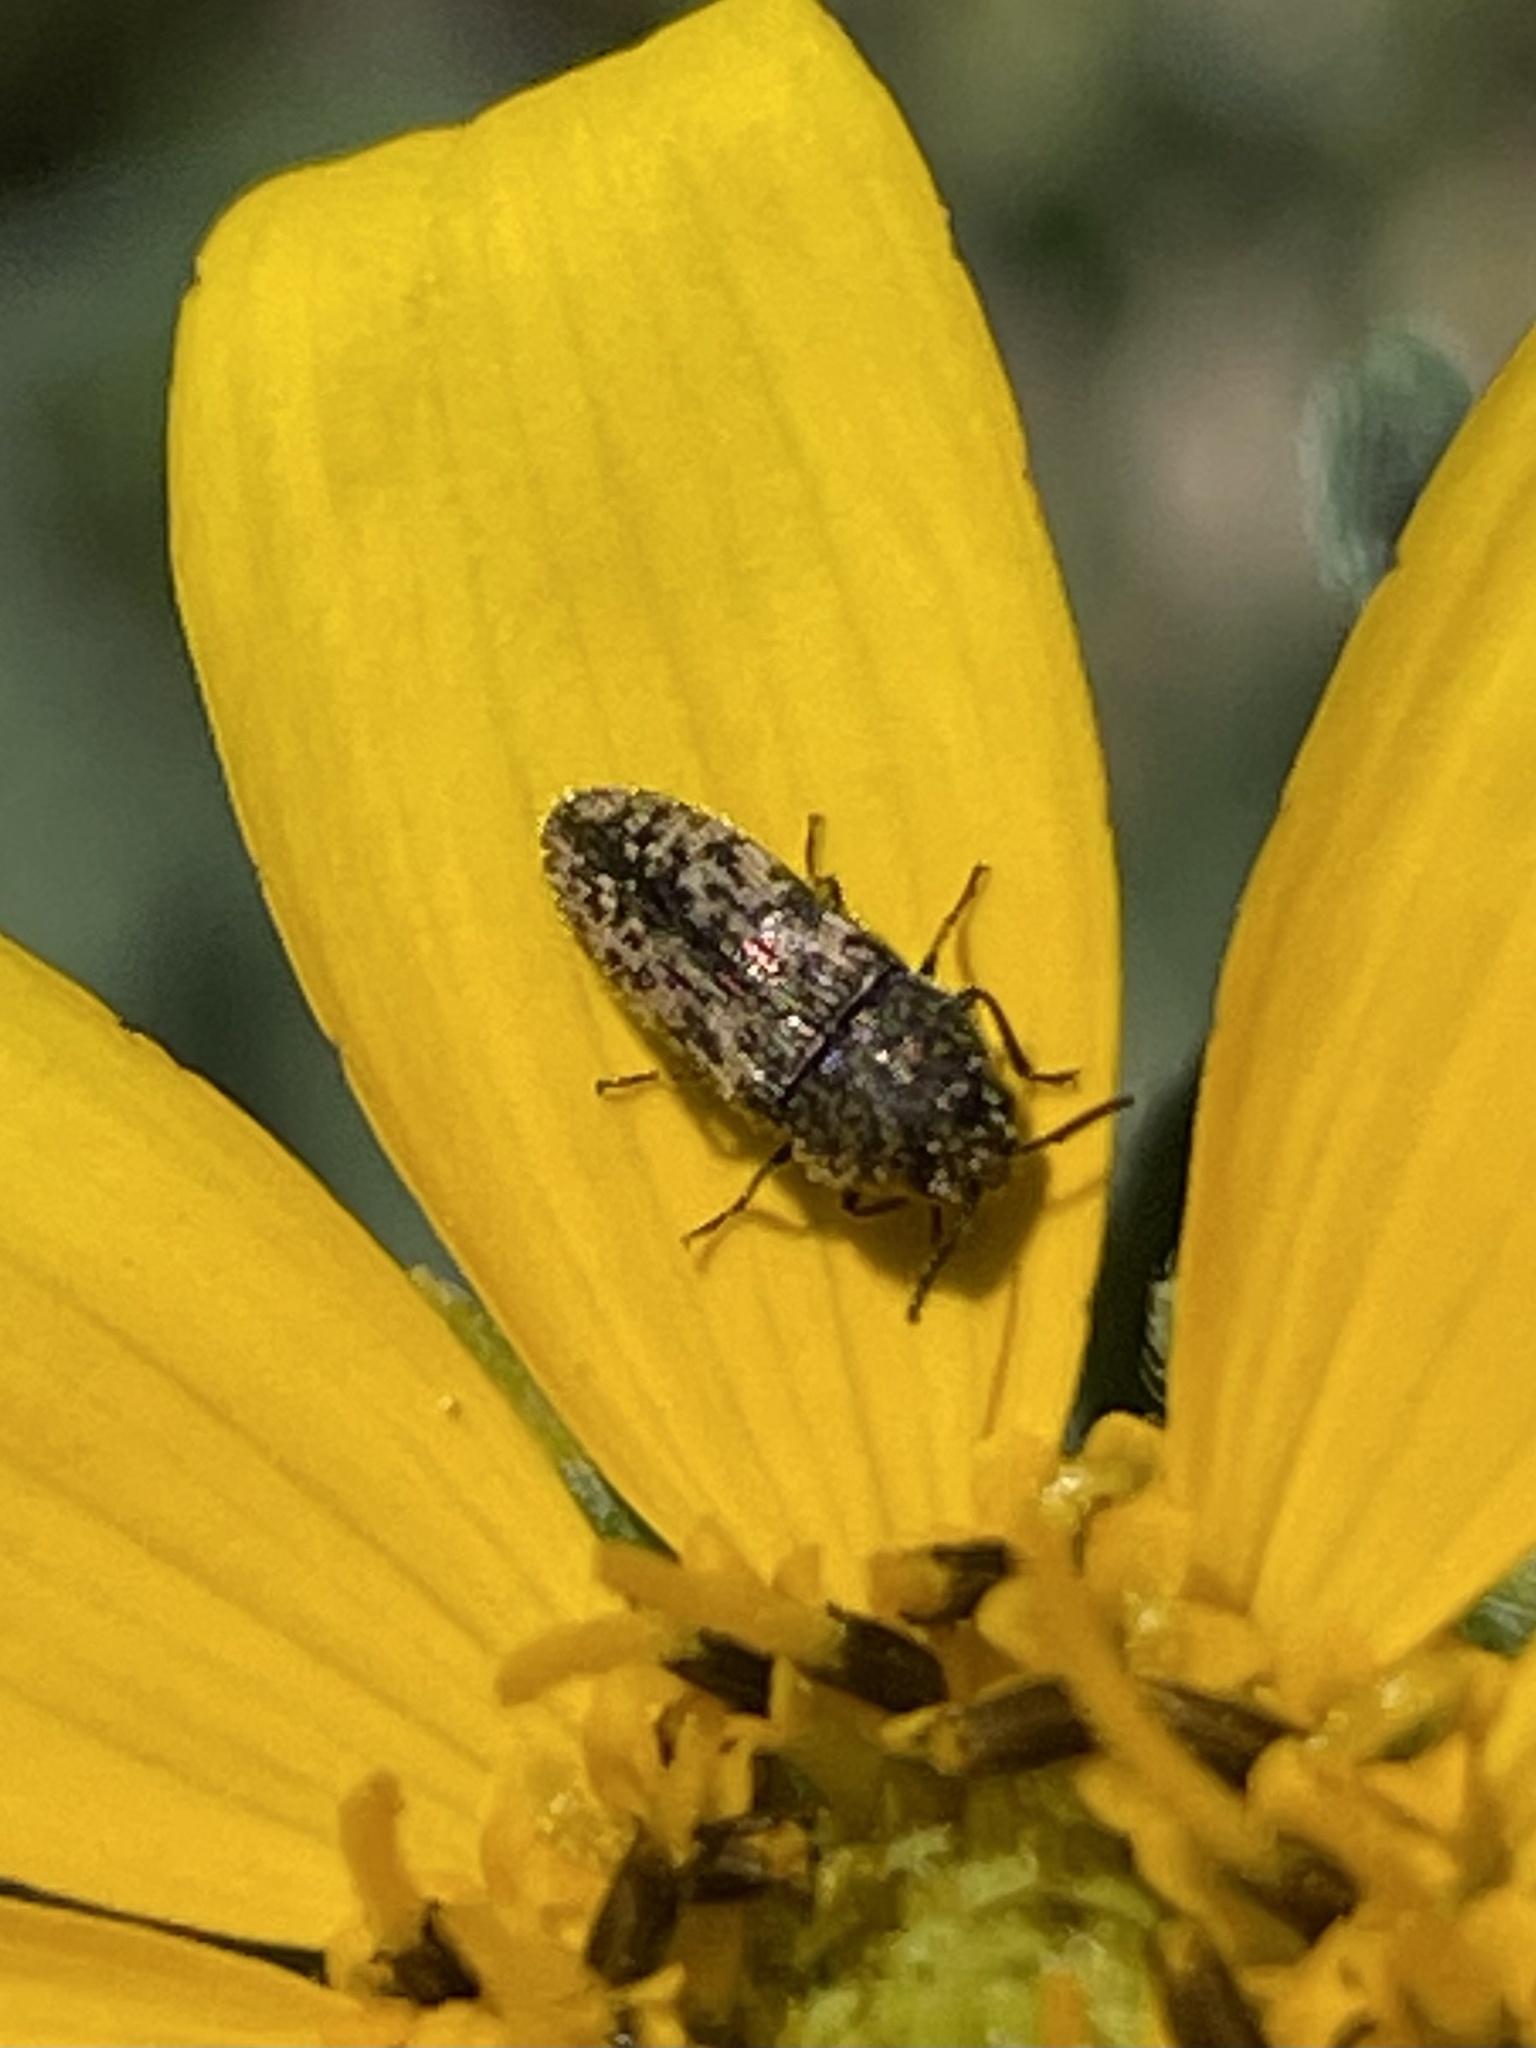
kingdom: Animalia
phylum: Arthropoda
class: Insecta
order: Coleoptera
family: Buprestidae
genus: Acmaeodera
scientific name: Acmaeodera neglecta
